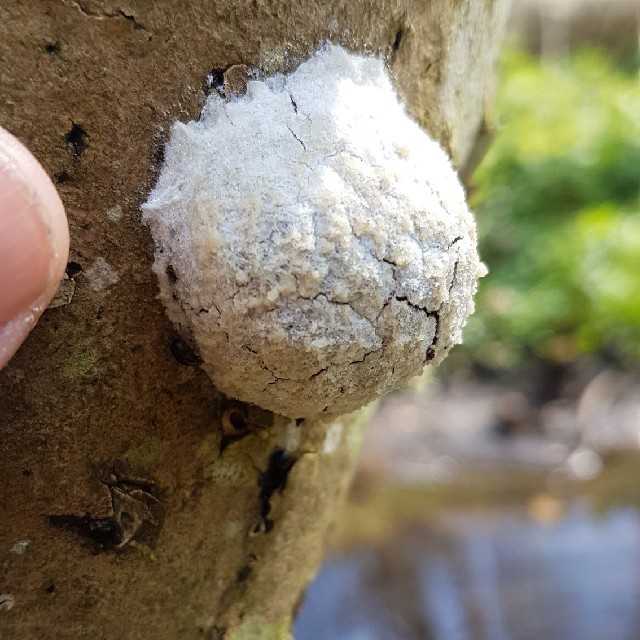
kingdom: Protozoa
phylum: Mycetozoa
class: Myxomycetes
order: Cribrariales
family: Tubiferaceae
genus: Reticularia
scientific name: Reticularia lycoperdon
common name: False puffball
